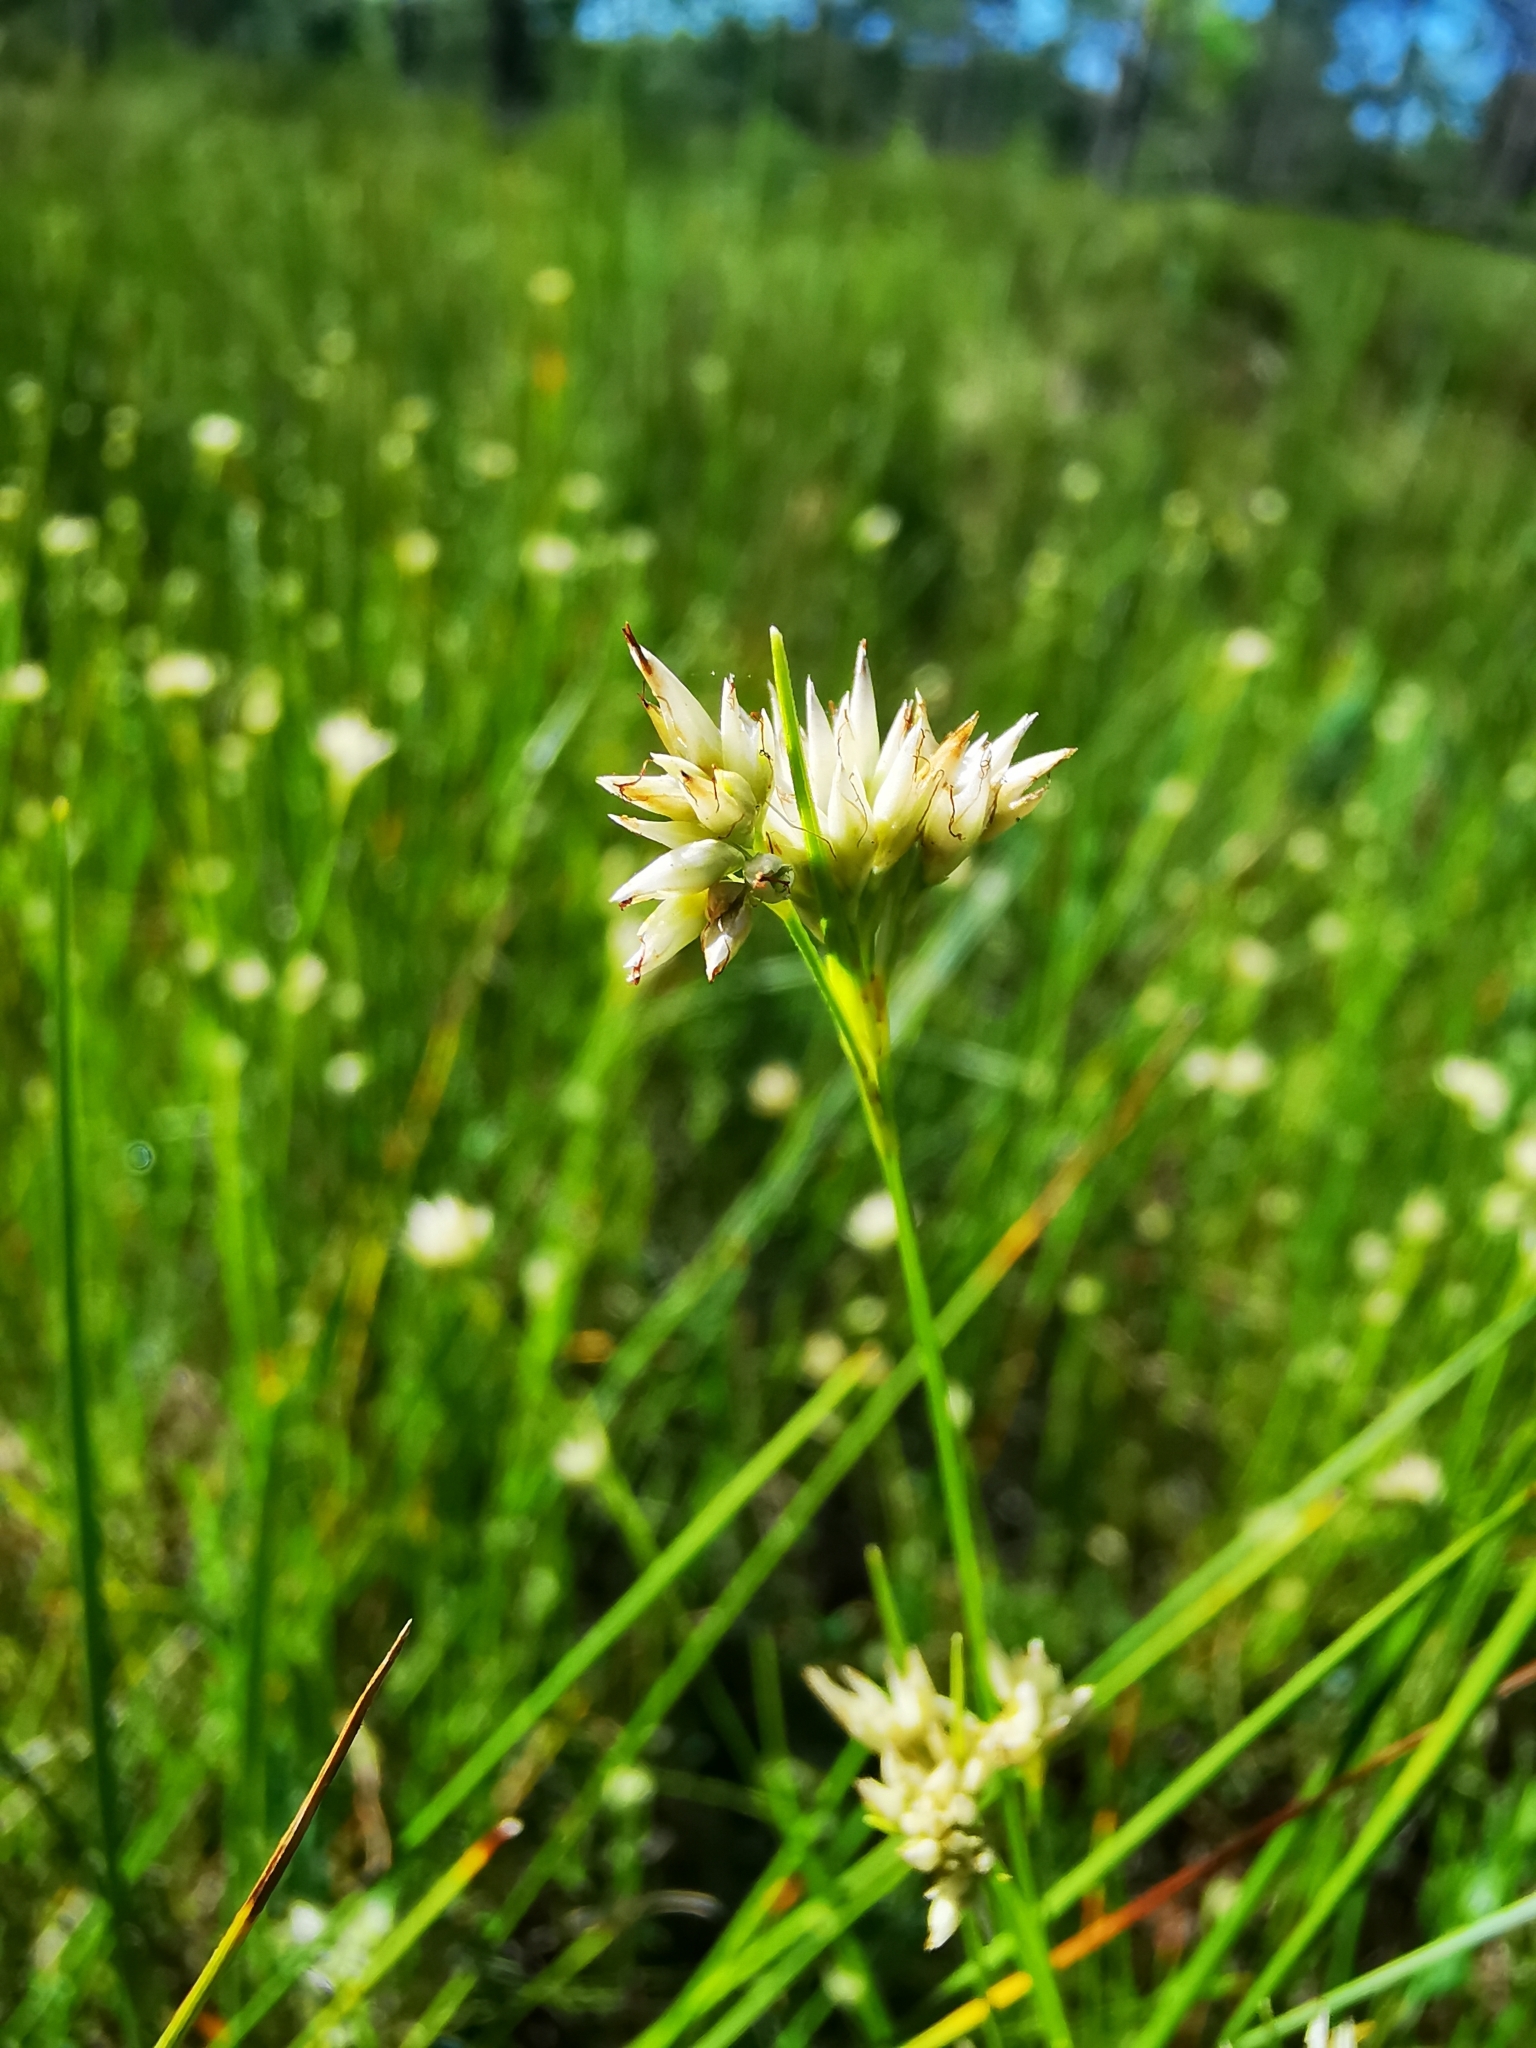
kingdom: Plantae
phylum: Tracheophyta
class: Liliopsida
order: Poales
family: Cyperaceae
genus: Rhynchospora
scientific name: Rhynchospora alba
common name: White beak-sedge
